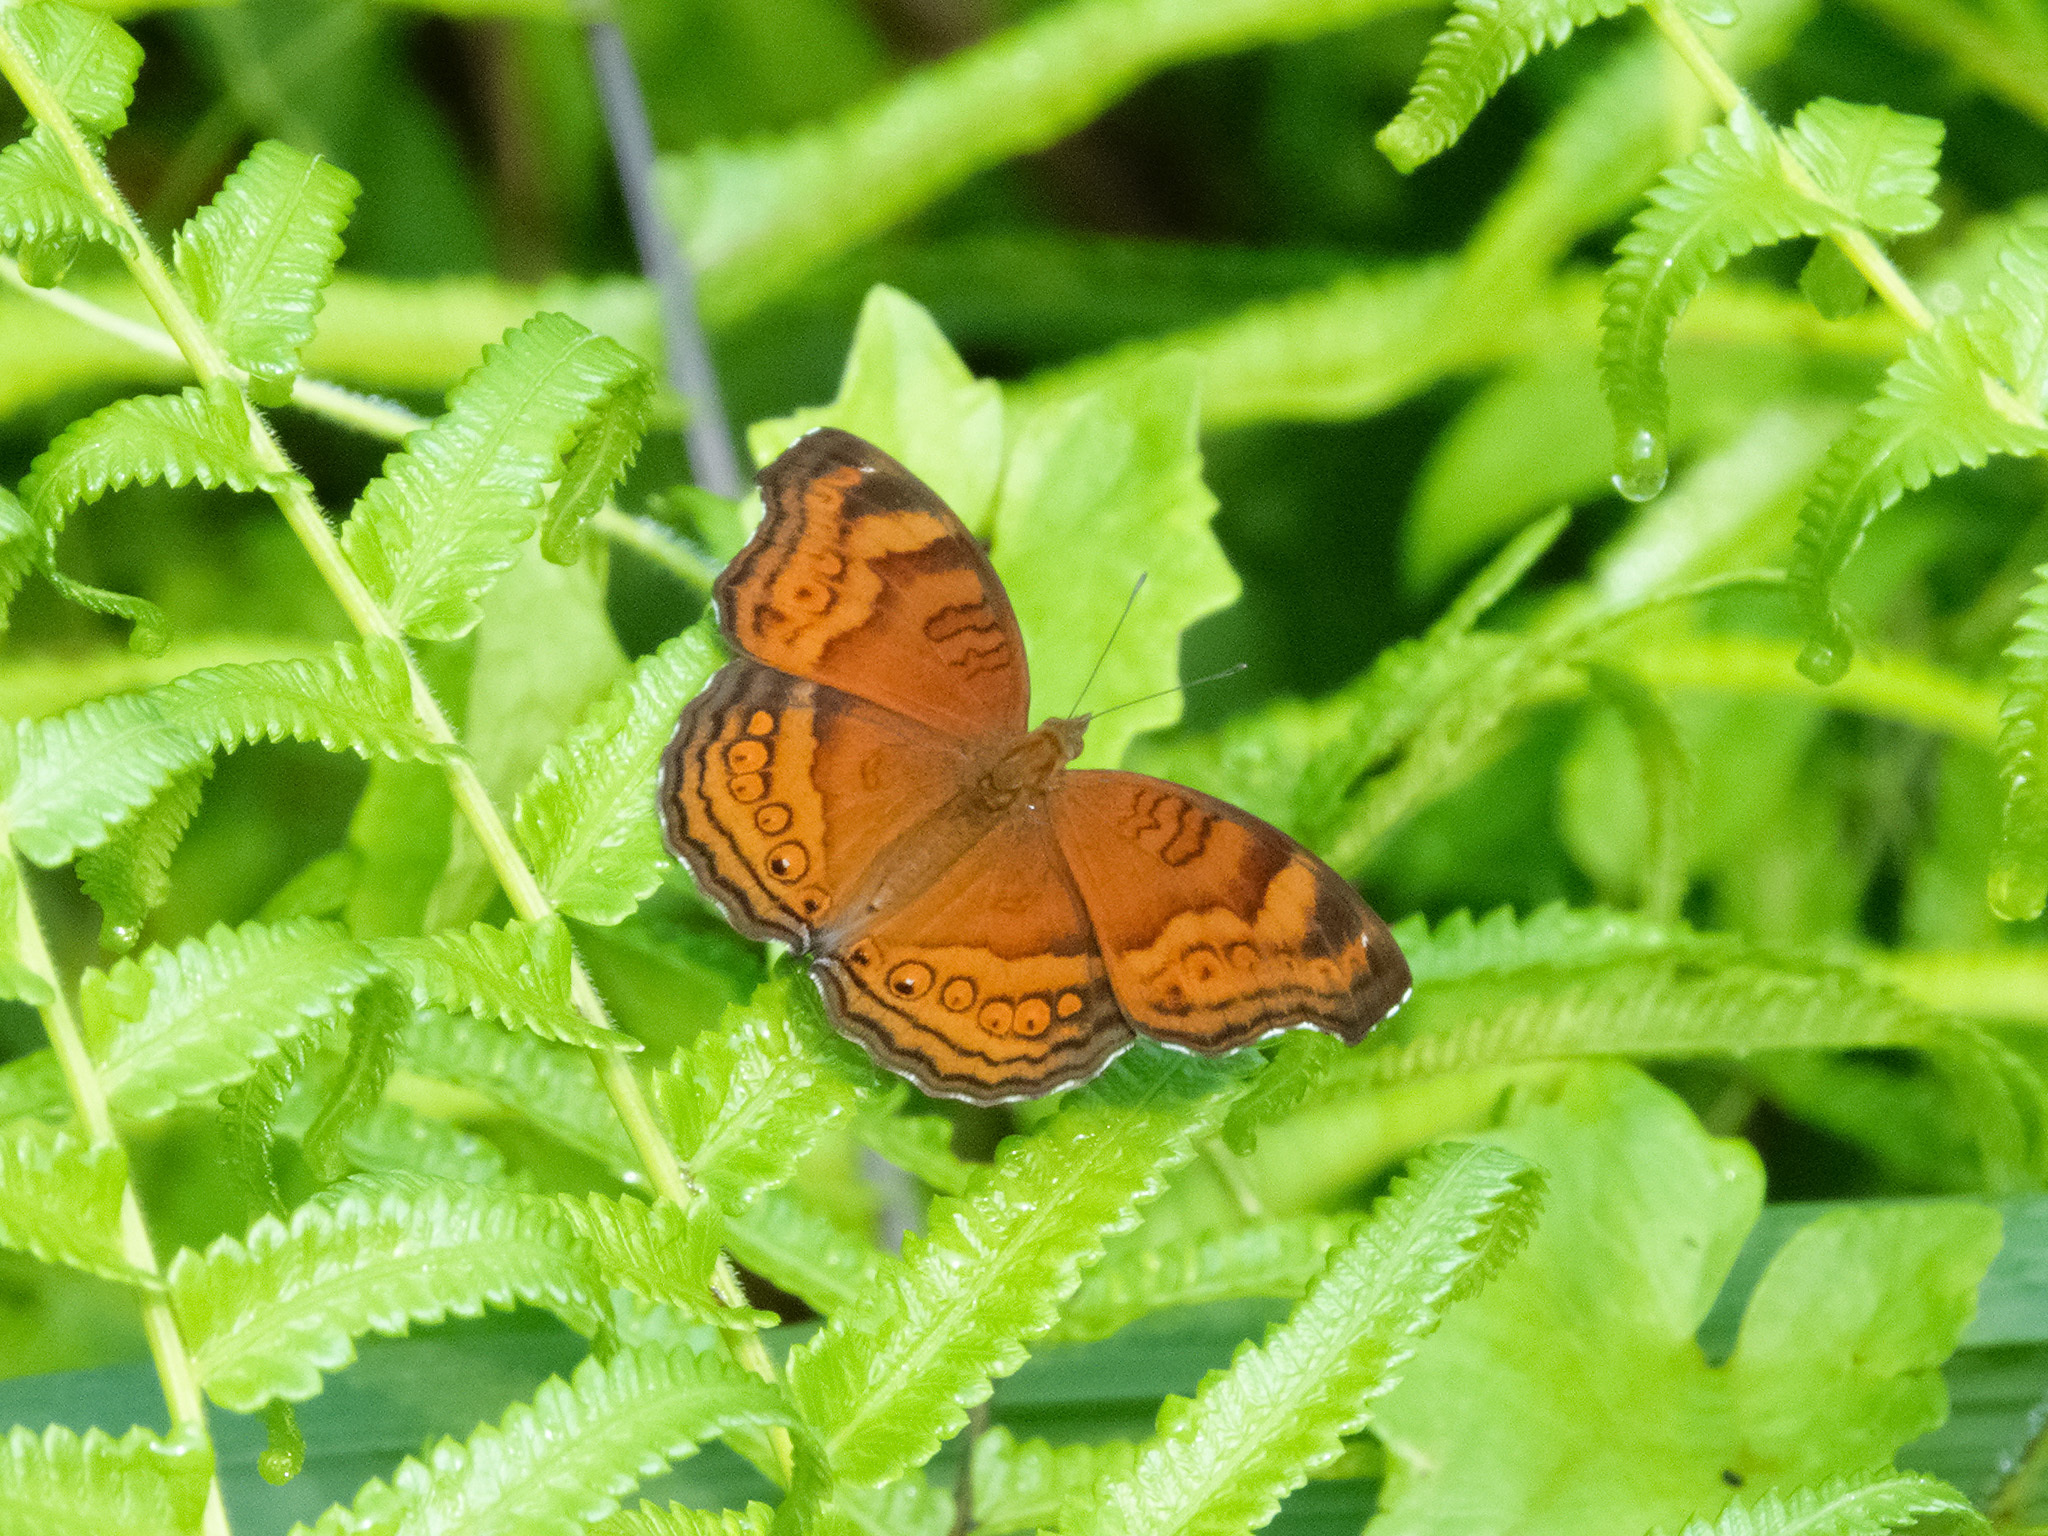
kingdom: Animalia
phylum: Arthropoda
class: Insecta
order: Lepidoptera
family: Nymphalidae
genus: Junonia
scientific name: Junonia hedonia
